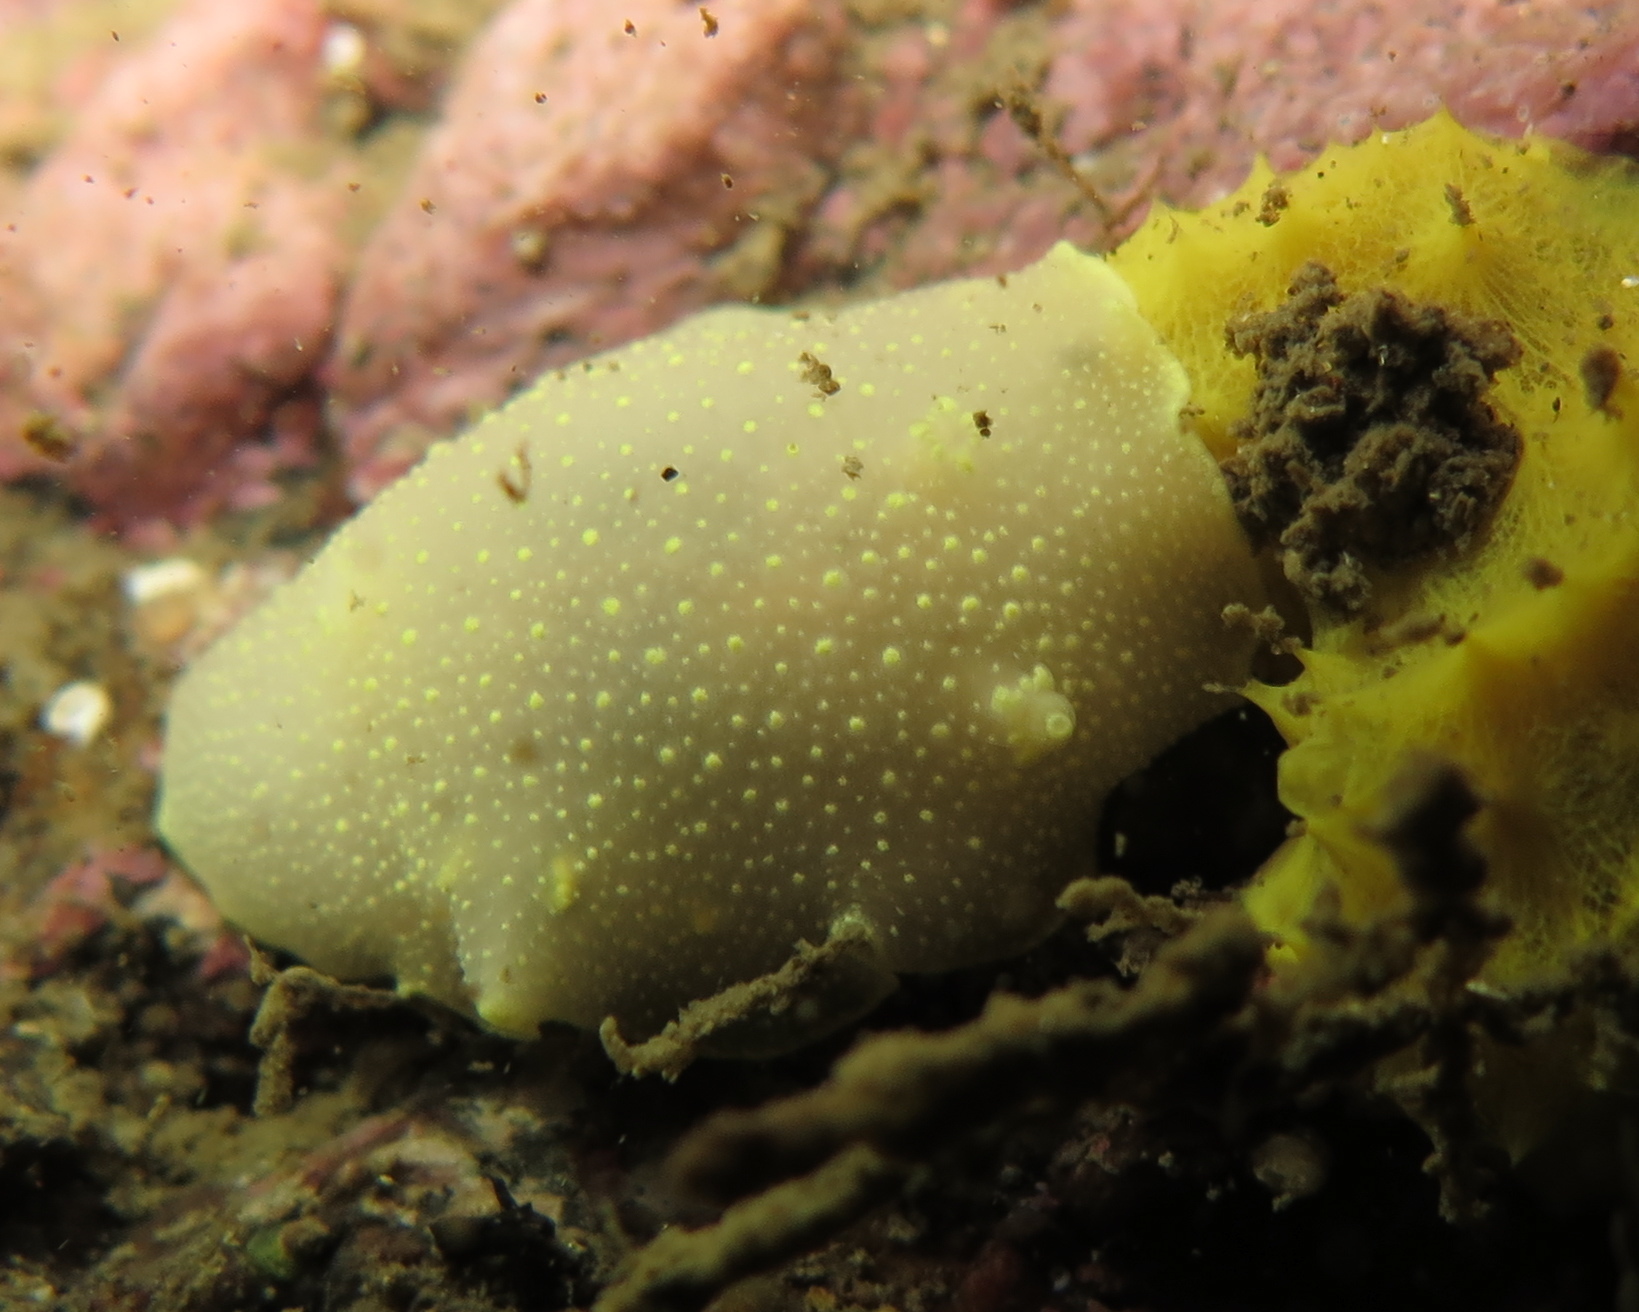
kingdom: Animalia
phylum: Mollusca
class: Gastropoda
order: Nudibranchia
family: Cadlinidae
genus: Cadlina
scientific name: Cadlina laevis
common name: White atlantic cadlina
